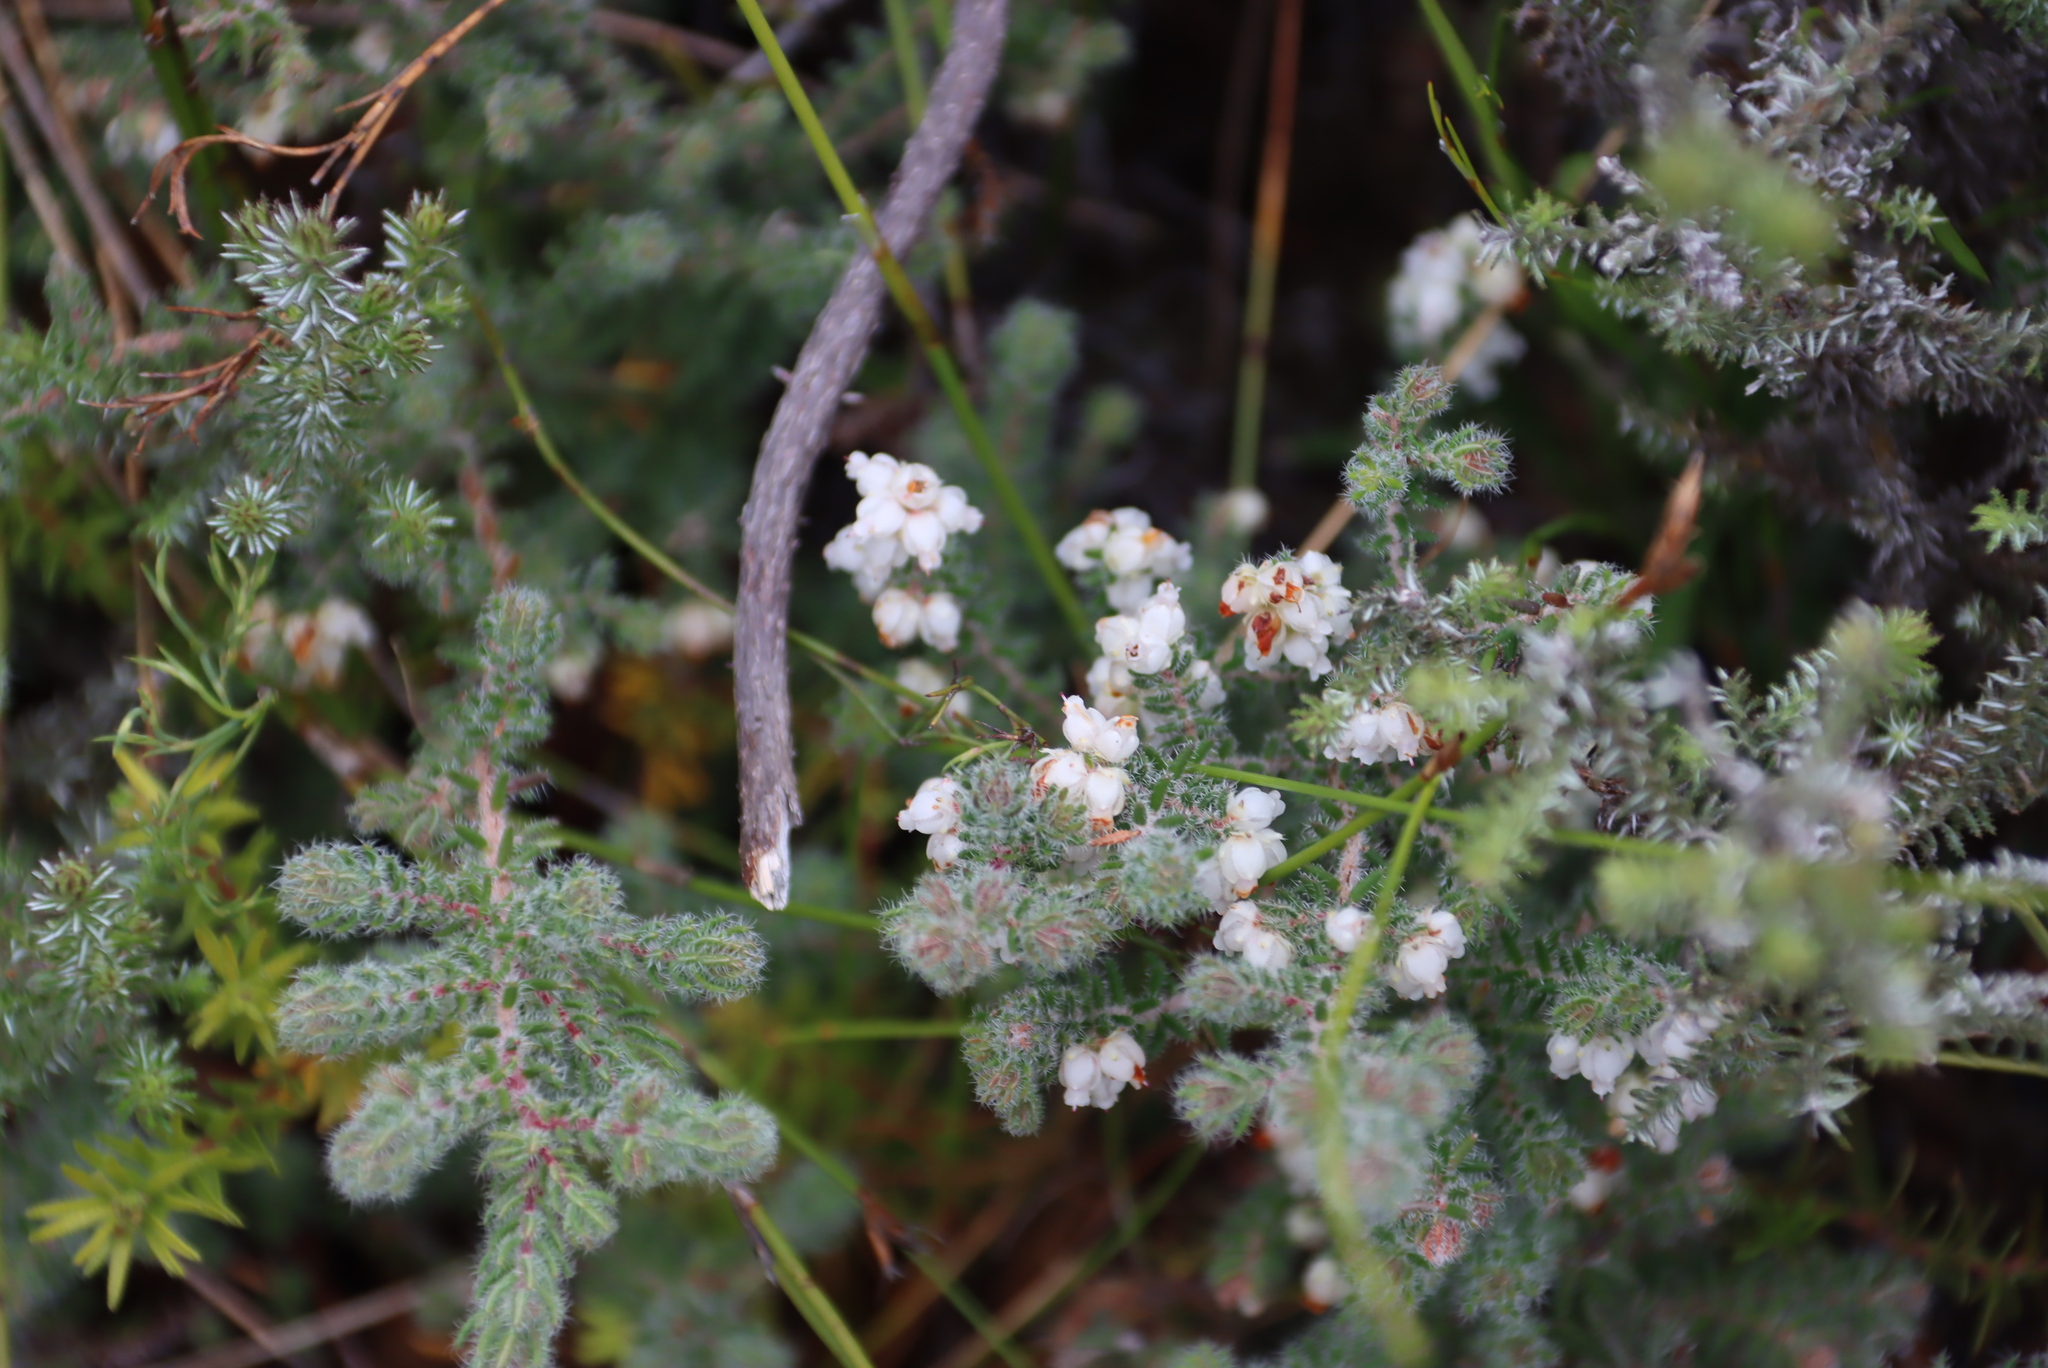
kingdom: Plantae
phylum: Tracheophyta
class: Magnoliopsida
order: Ericales
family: Ericaceae
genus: Erica
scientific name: Erica totta
